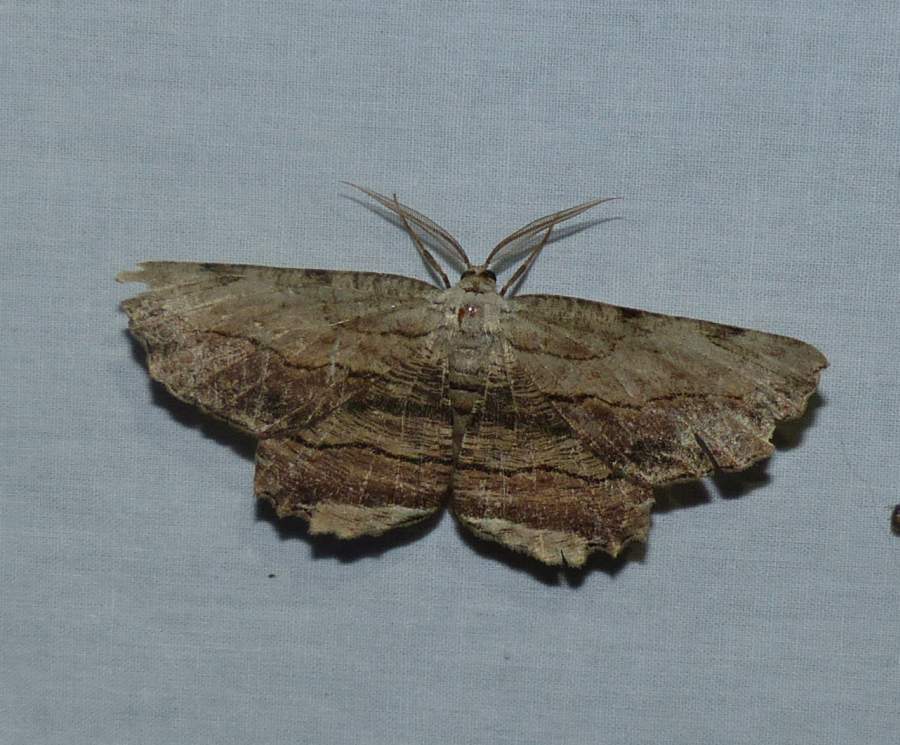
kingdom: Animalia
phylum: Arthropoda
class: Insecta
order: Lepidoptera
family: Geometridae
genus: Lytrosis
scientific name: Lytrosis unitaria
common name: Common lytrosis
